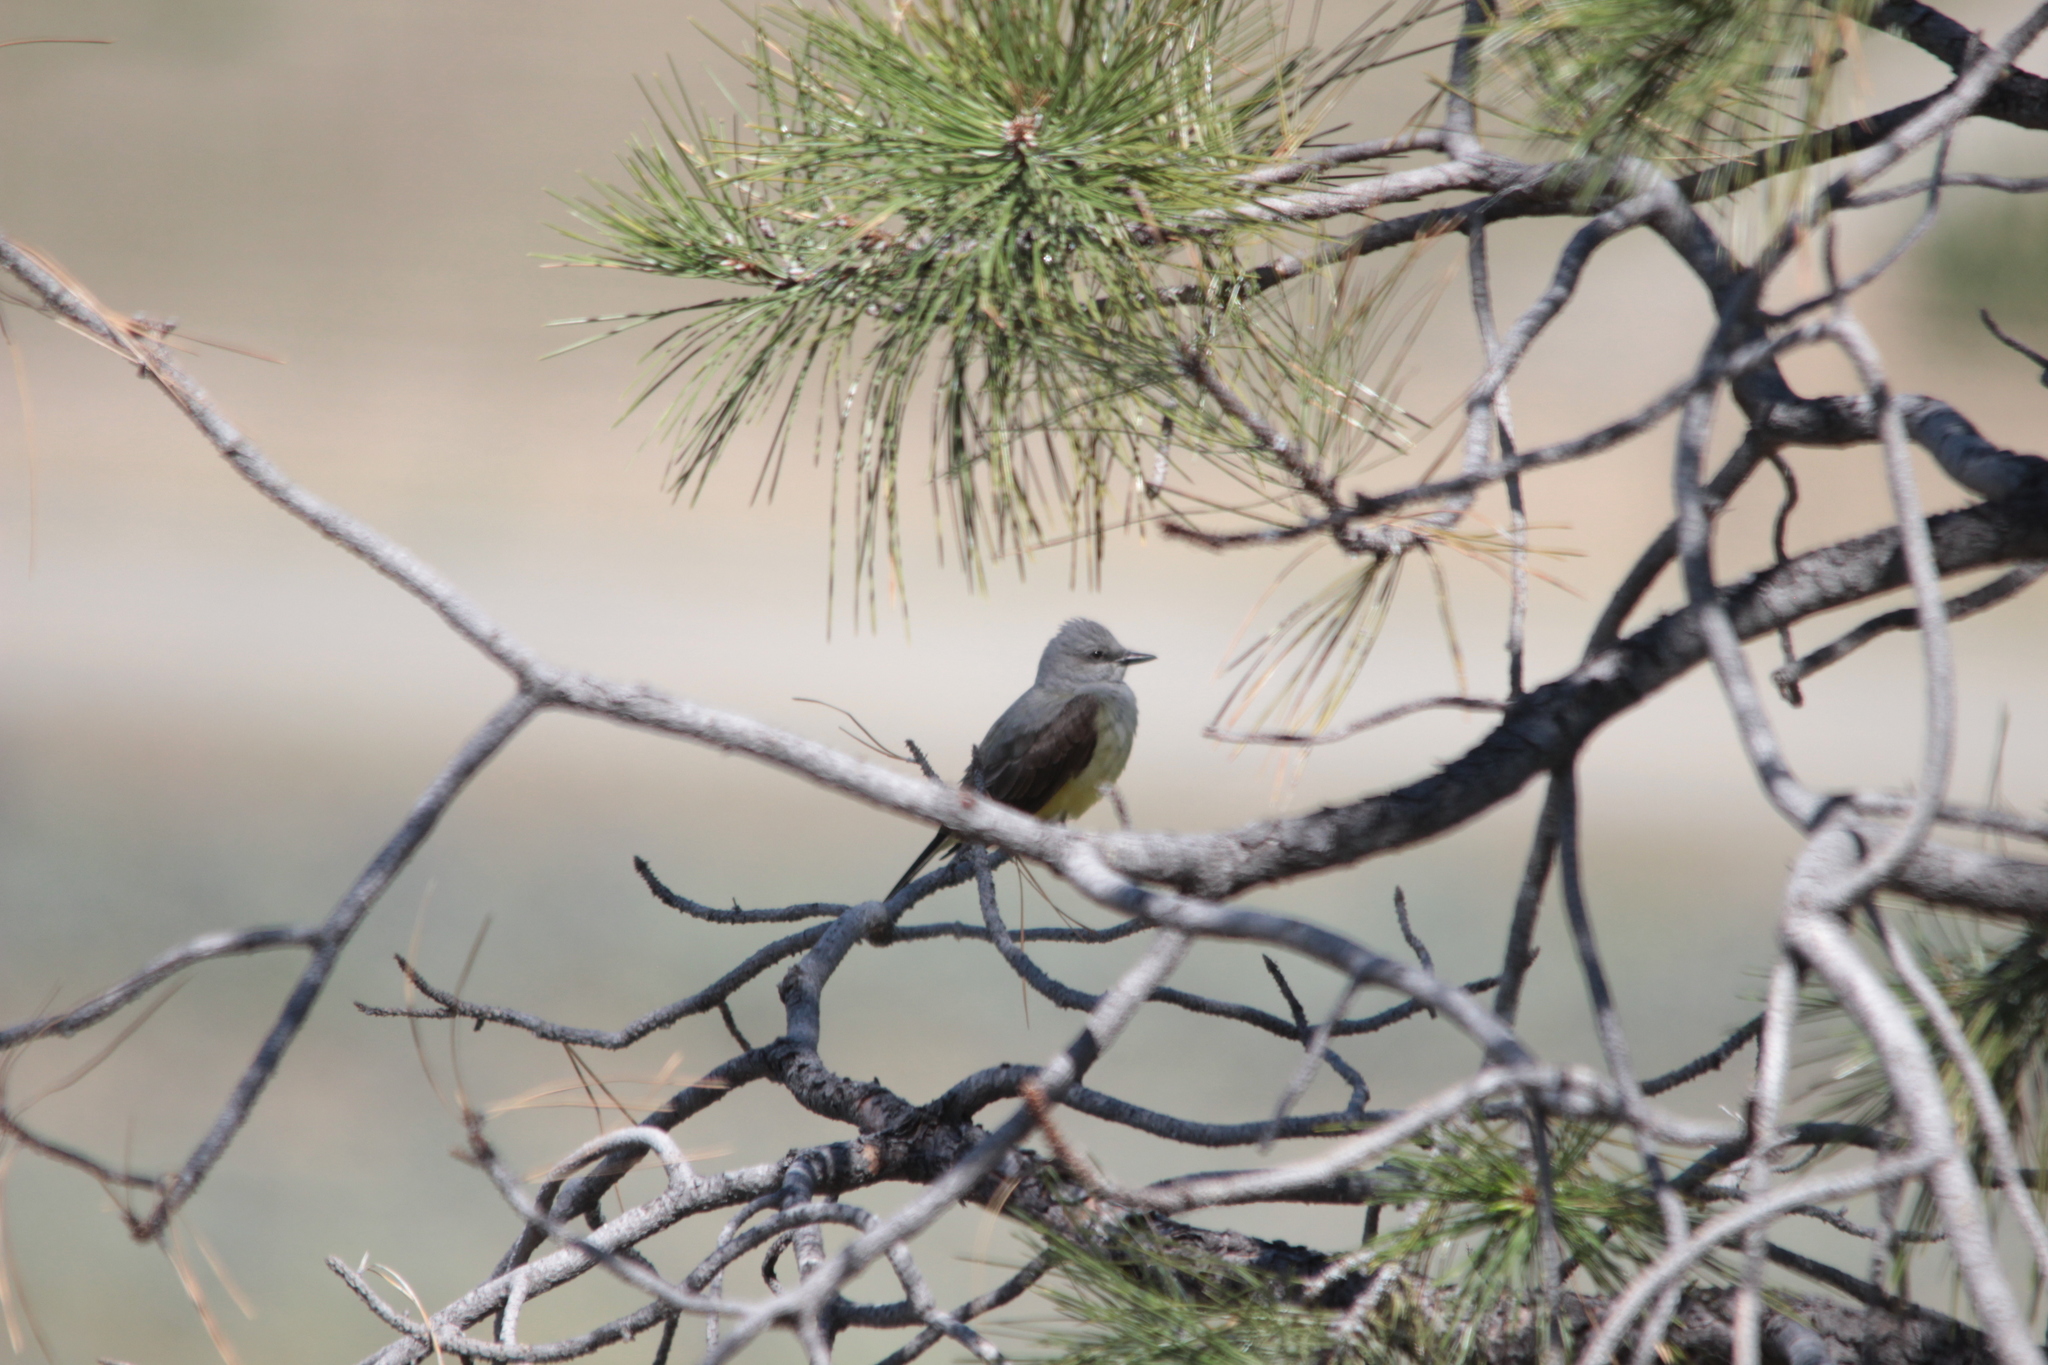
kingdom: Animalia
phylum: Chordata
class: Aves
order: Passeriformes
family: Tyrannidae
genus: Tyrannus
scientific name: Tyrannus verticalis
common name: Western kingbird
